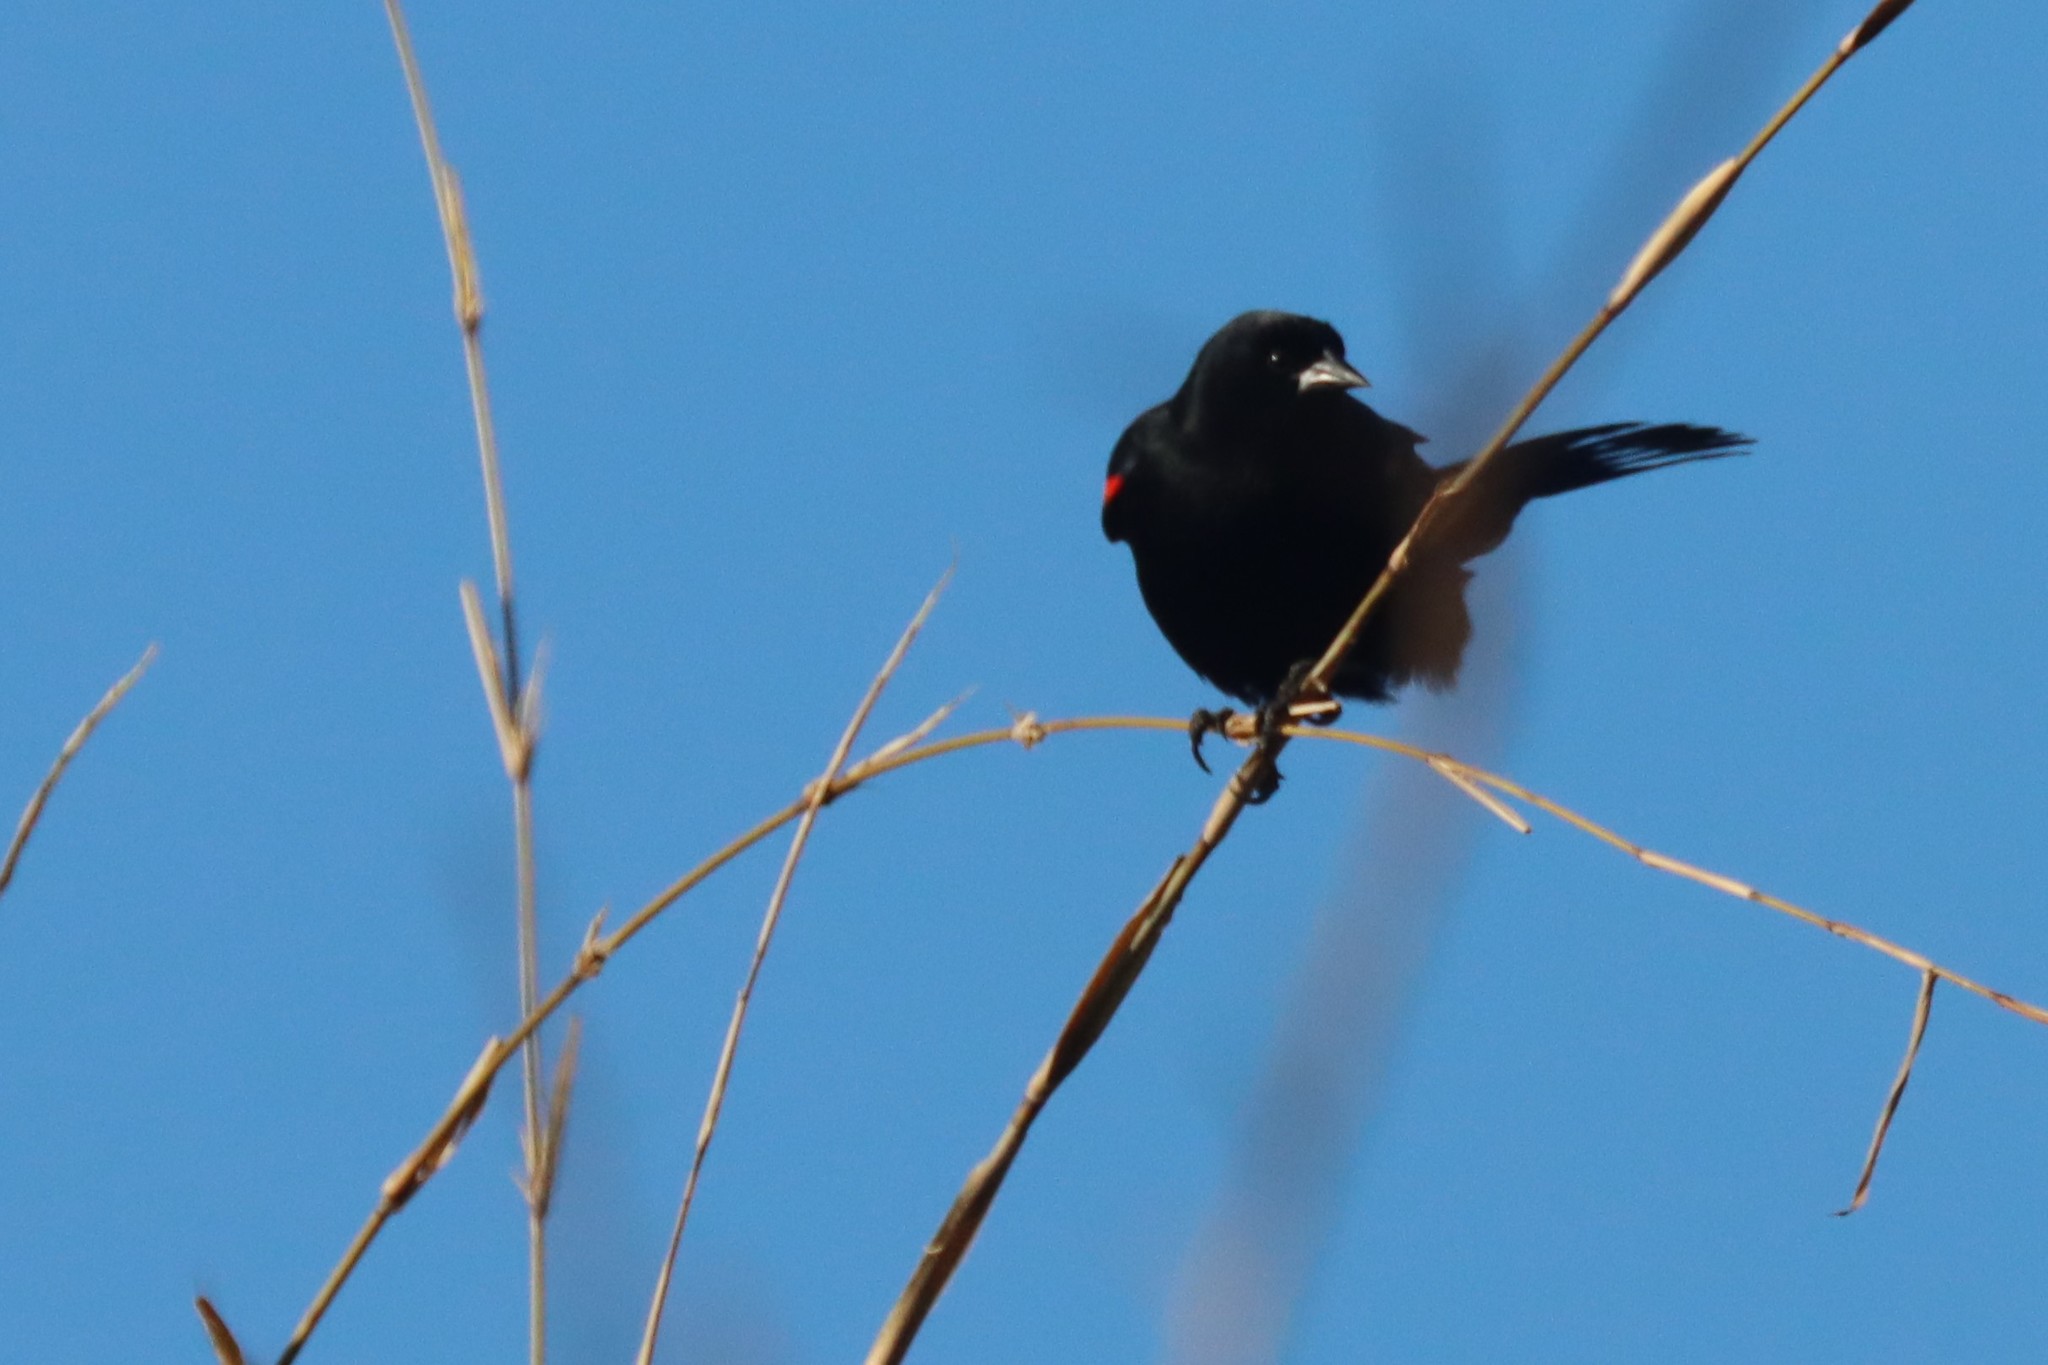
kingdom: Animalia
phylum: Chordata
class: Aves
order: Passeriformes
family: Icteridae
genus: Agelaius
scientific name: Agelaius phoeniceus
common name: Red-winged blackbird
